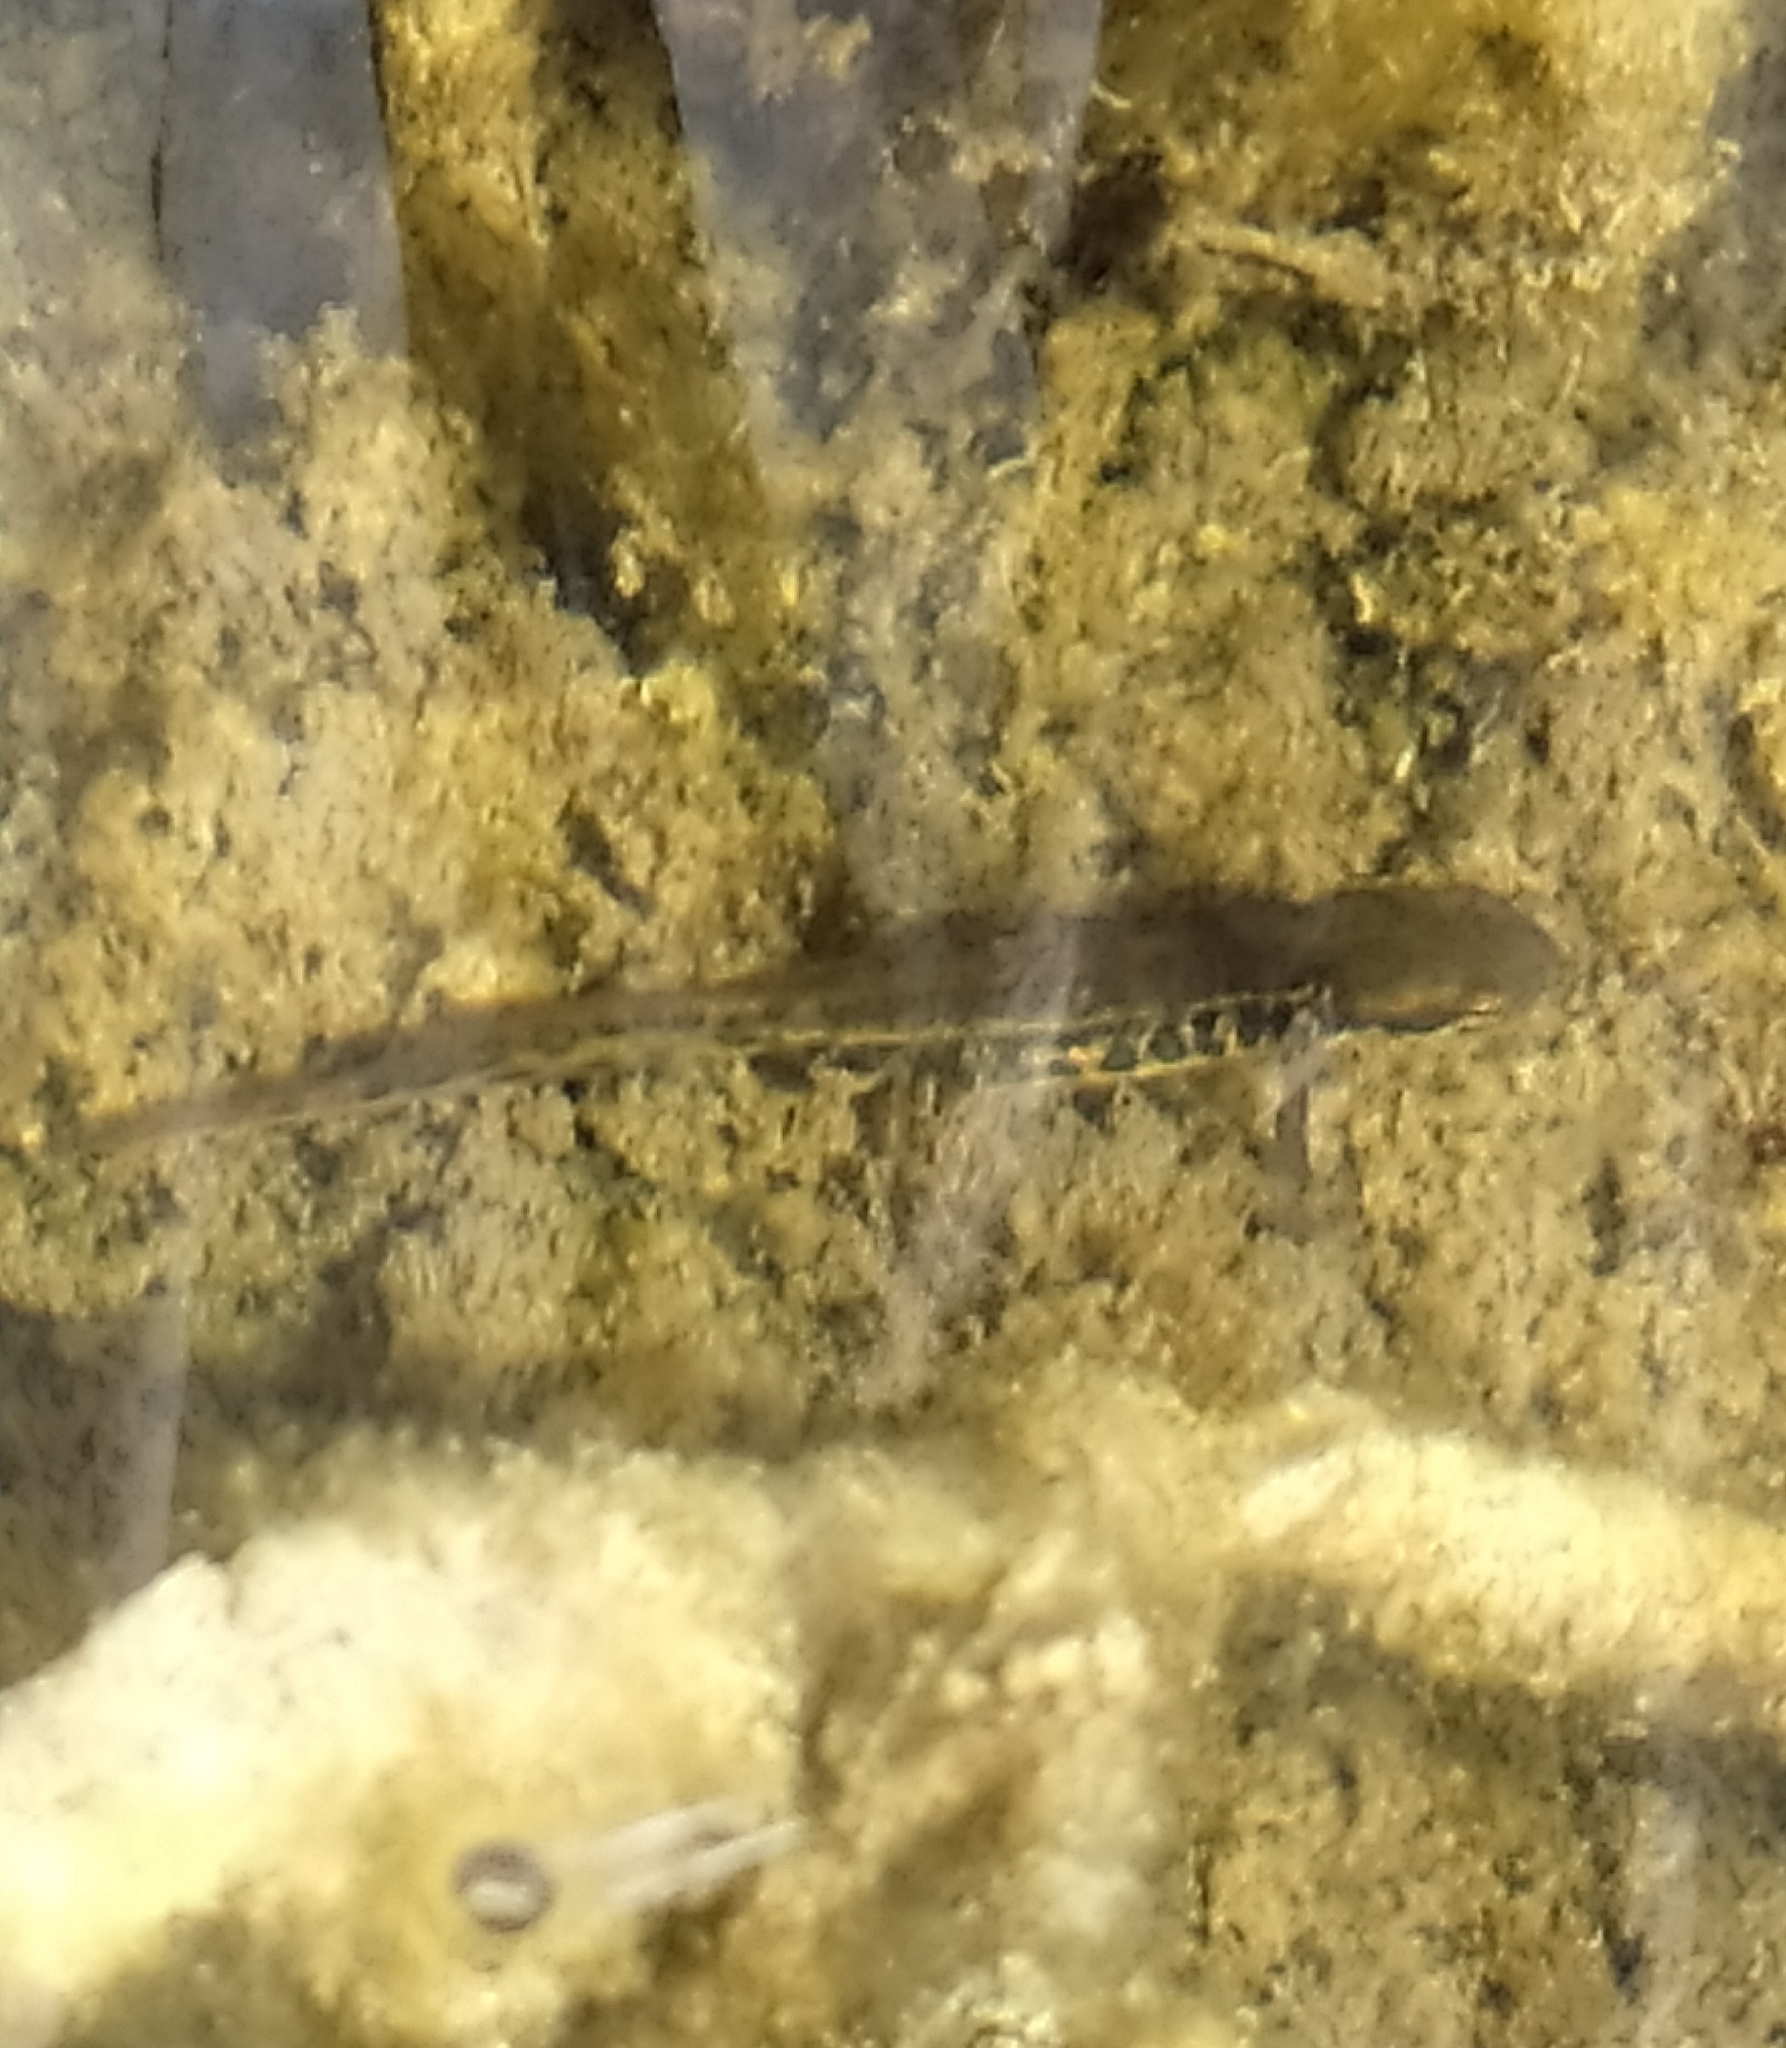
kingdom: Animalia
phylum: Chordata
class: Amphibia
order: Caudata
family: Salamandridae
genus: Lissotriton
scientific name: Lissotriton italicus
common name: Italian newt
